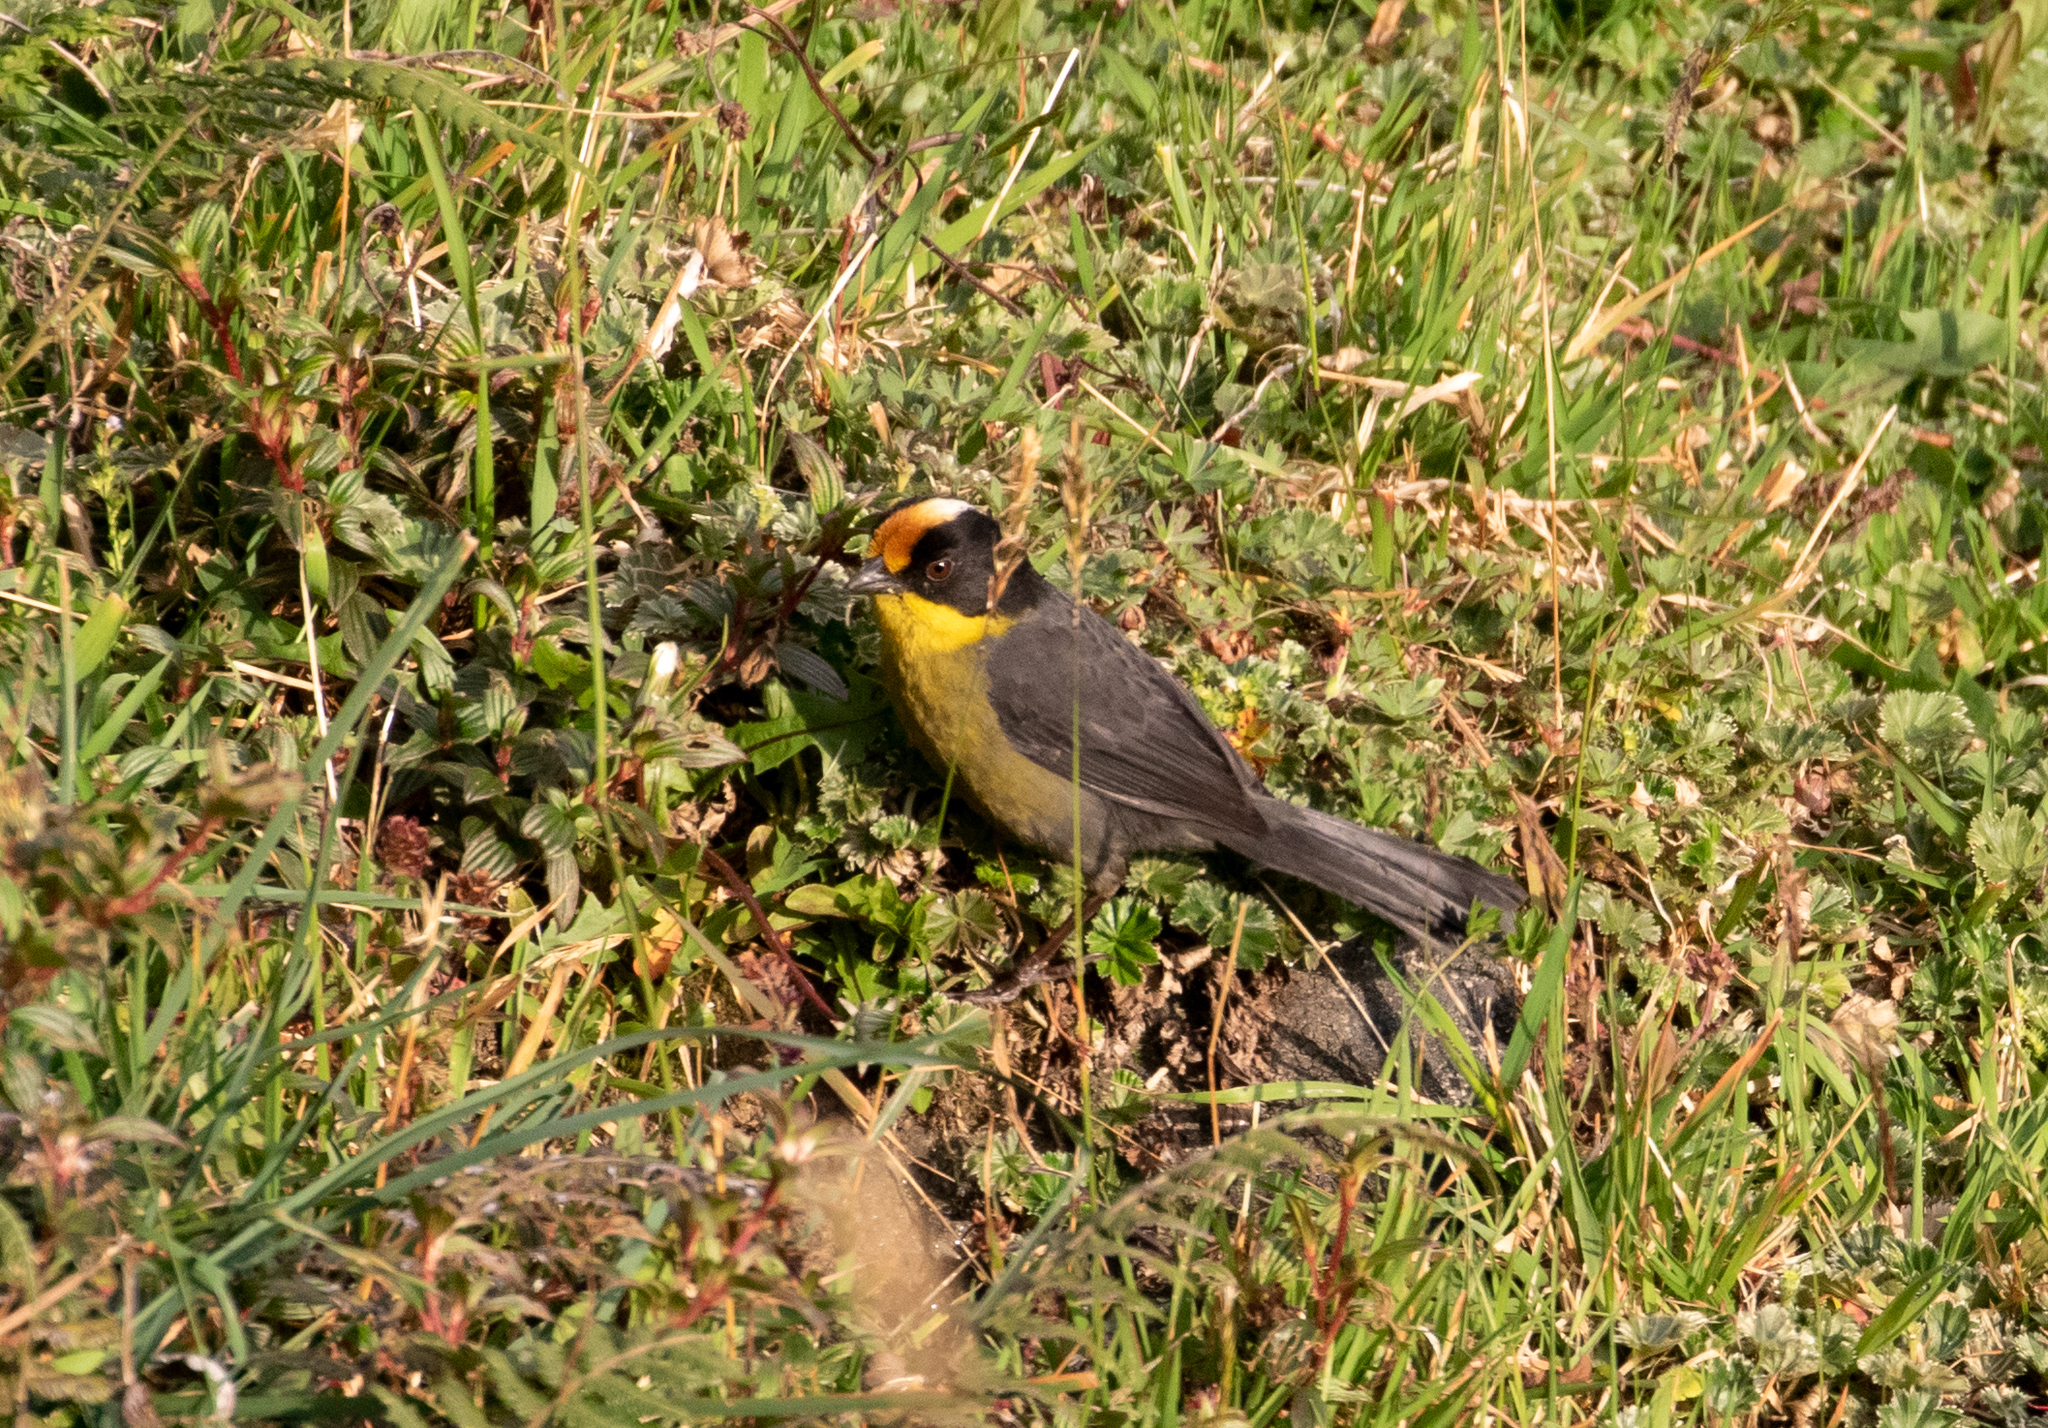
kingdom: Animalia
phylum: Chordata
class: Aves
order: Passeriformes
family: Passerellidae
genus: Atlapetes
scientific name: Atlapetes pallidinucha
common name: Pale-naped brushfinch
